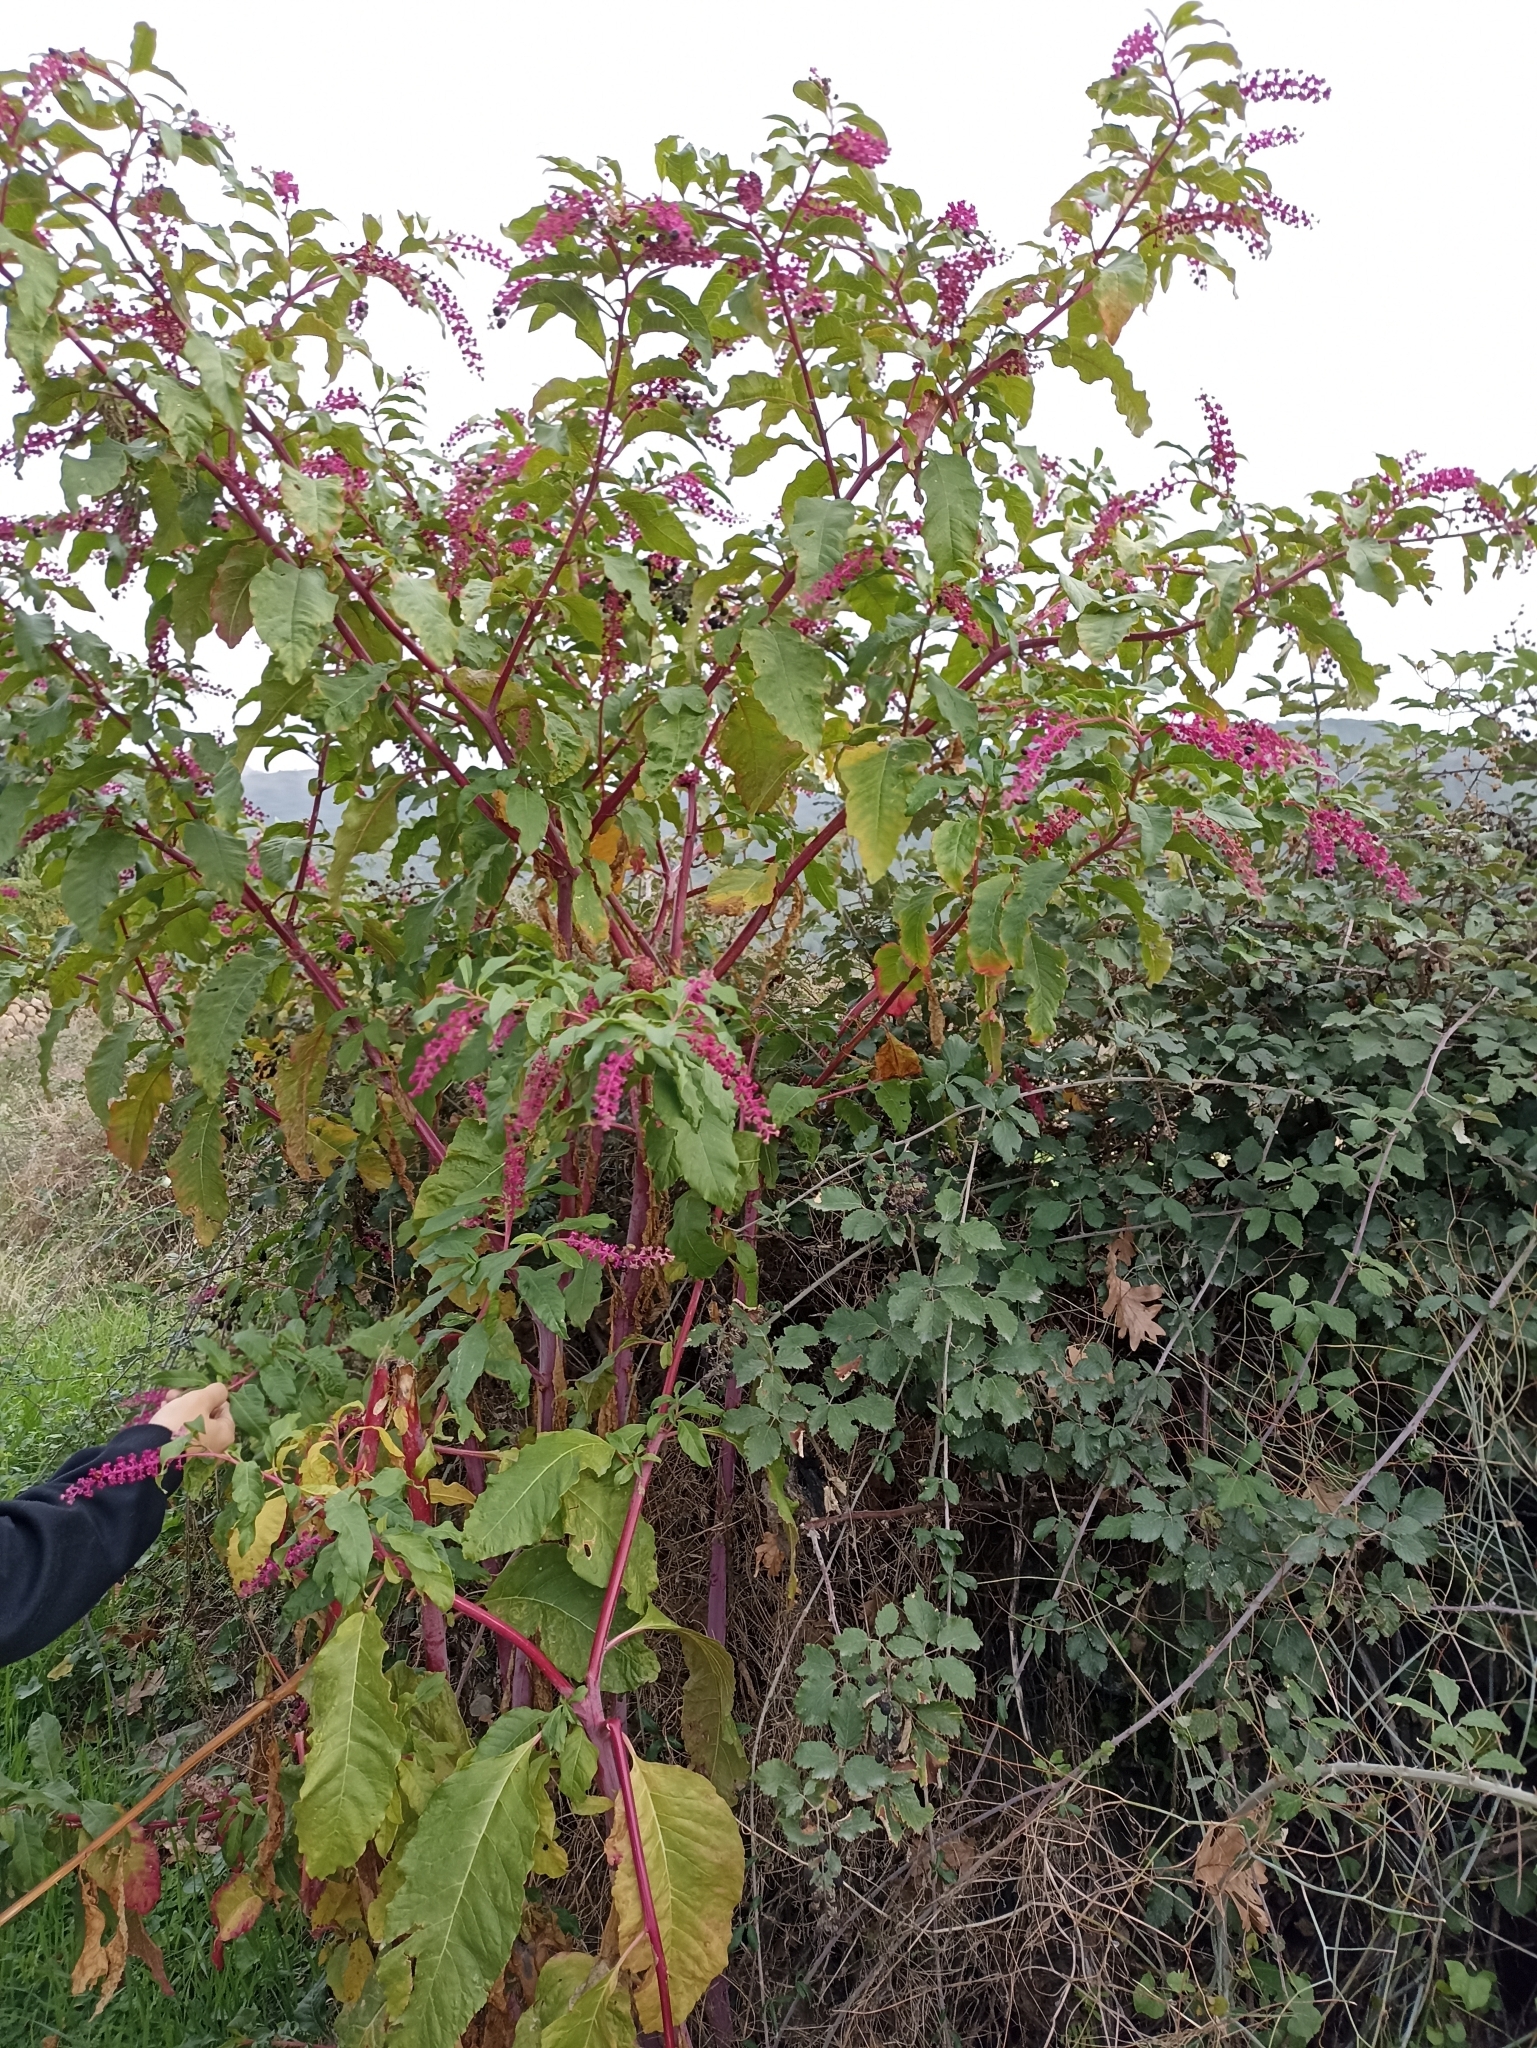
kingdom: Plantae
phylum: Tracheophyta
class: Magnoliopsida
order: Caryophyllales
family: Phytolaccaceae
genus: Phytolacca
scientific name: Phytolacca americana
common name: American pokeweed
